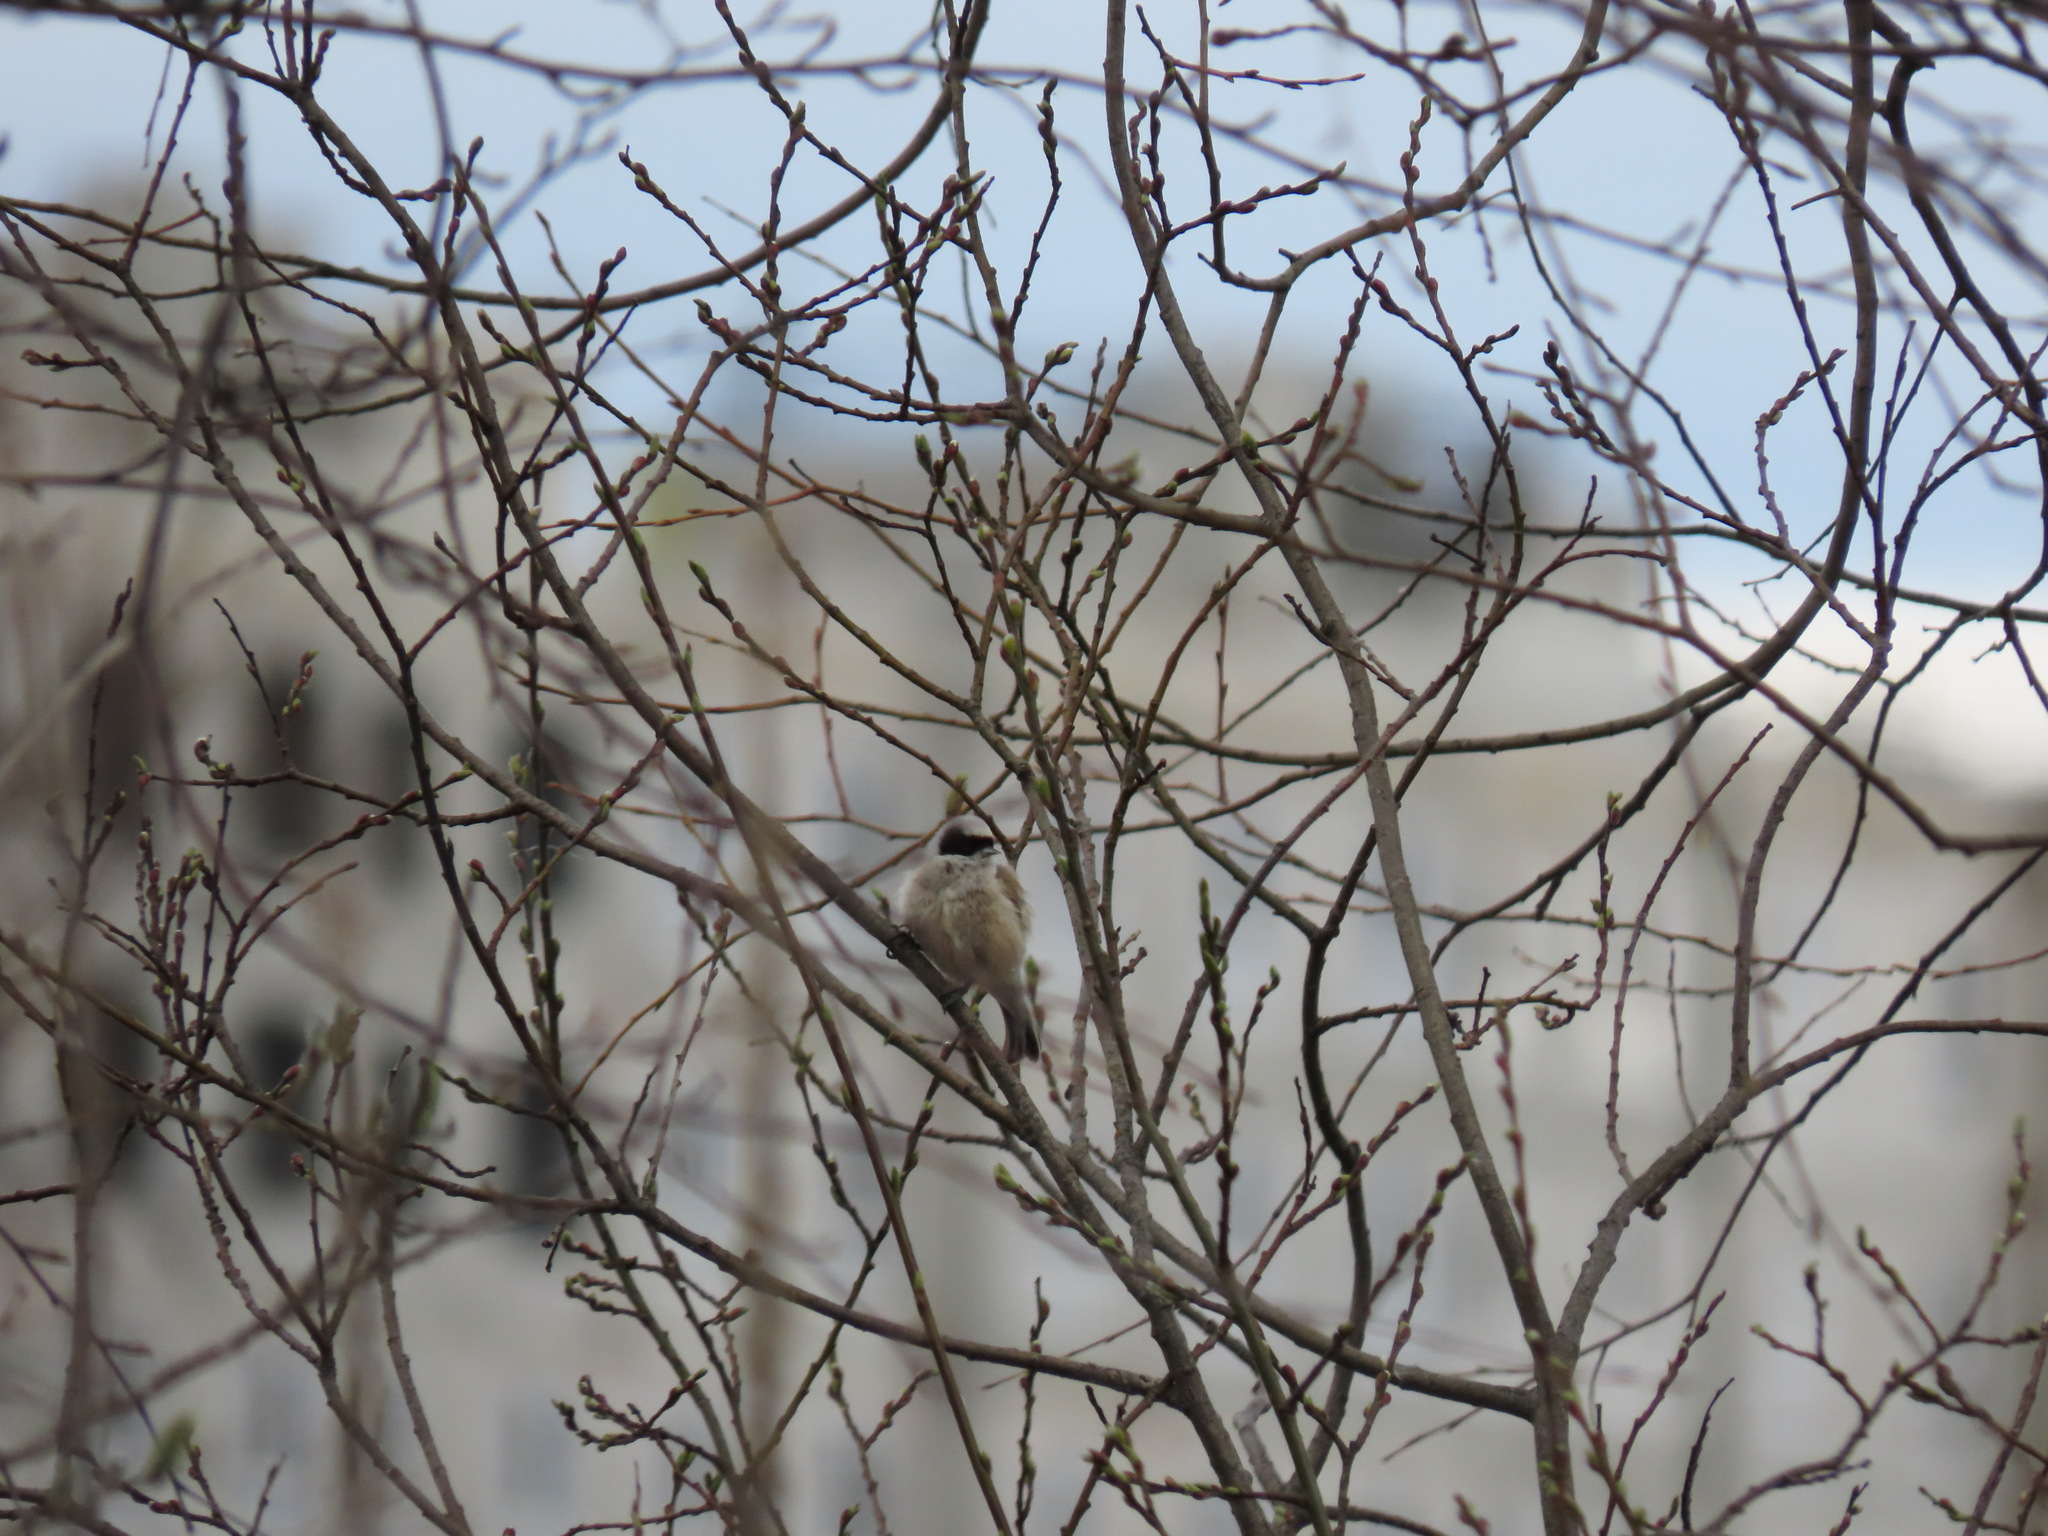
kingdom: Animalia
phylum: Chordata
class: Aves
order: Passeriformes
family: Remizidae
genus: Remiz
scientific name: Remiz pendulinus
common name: Eurasian penduline tit
